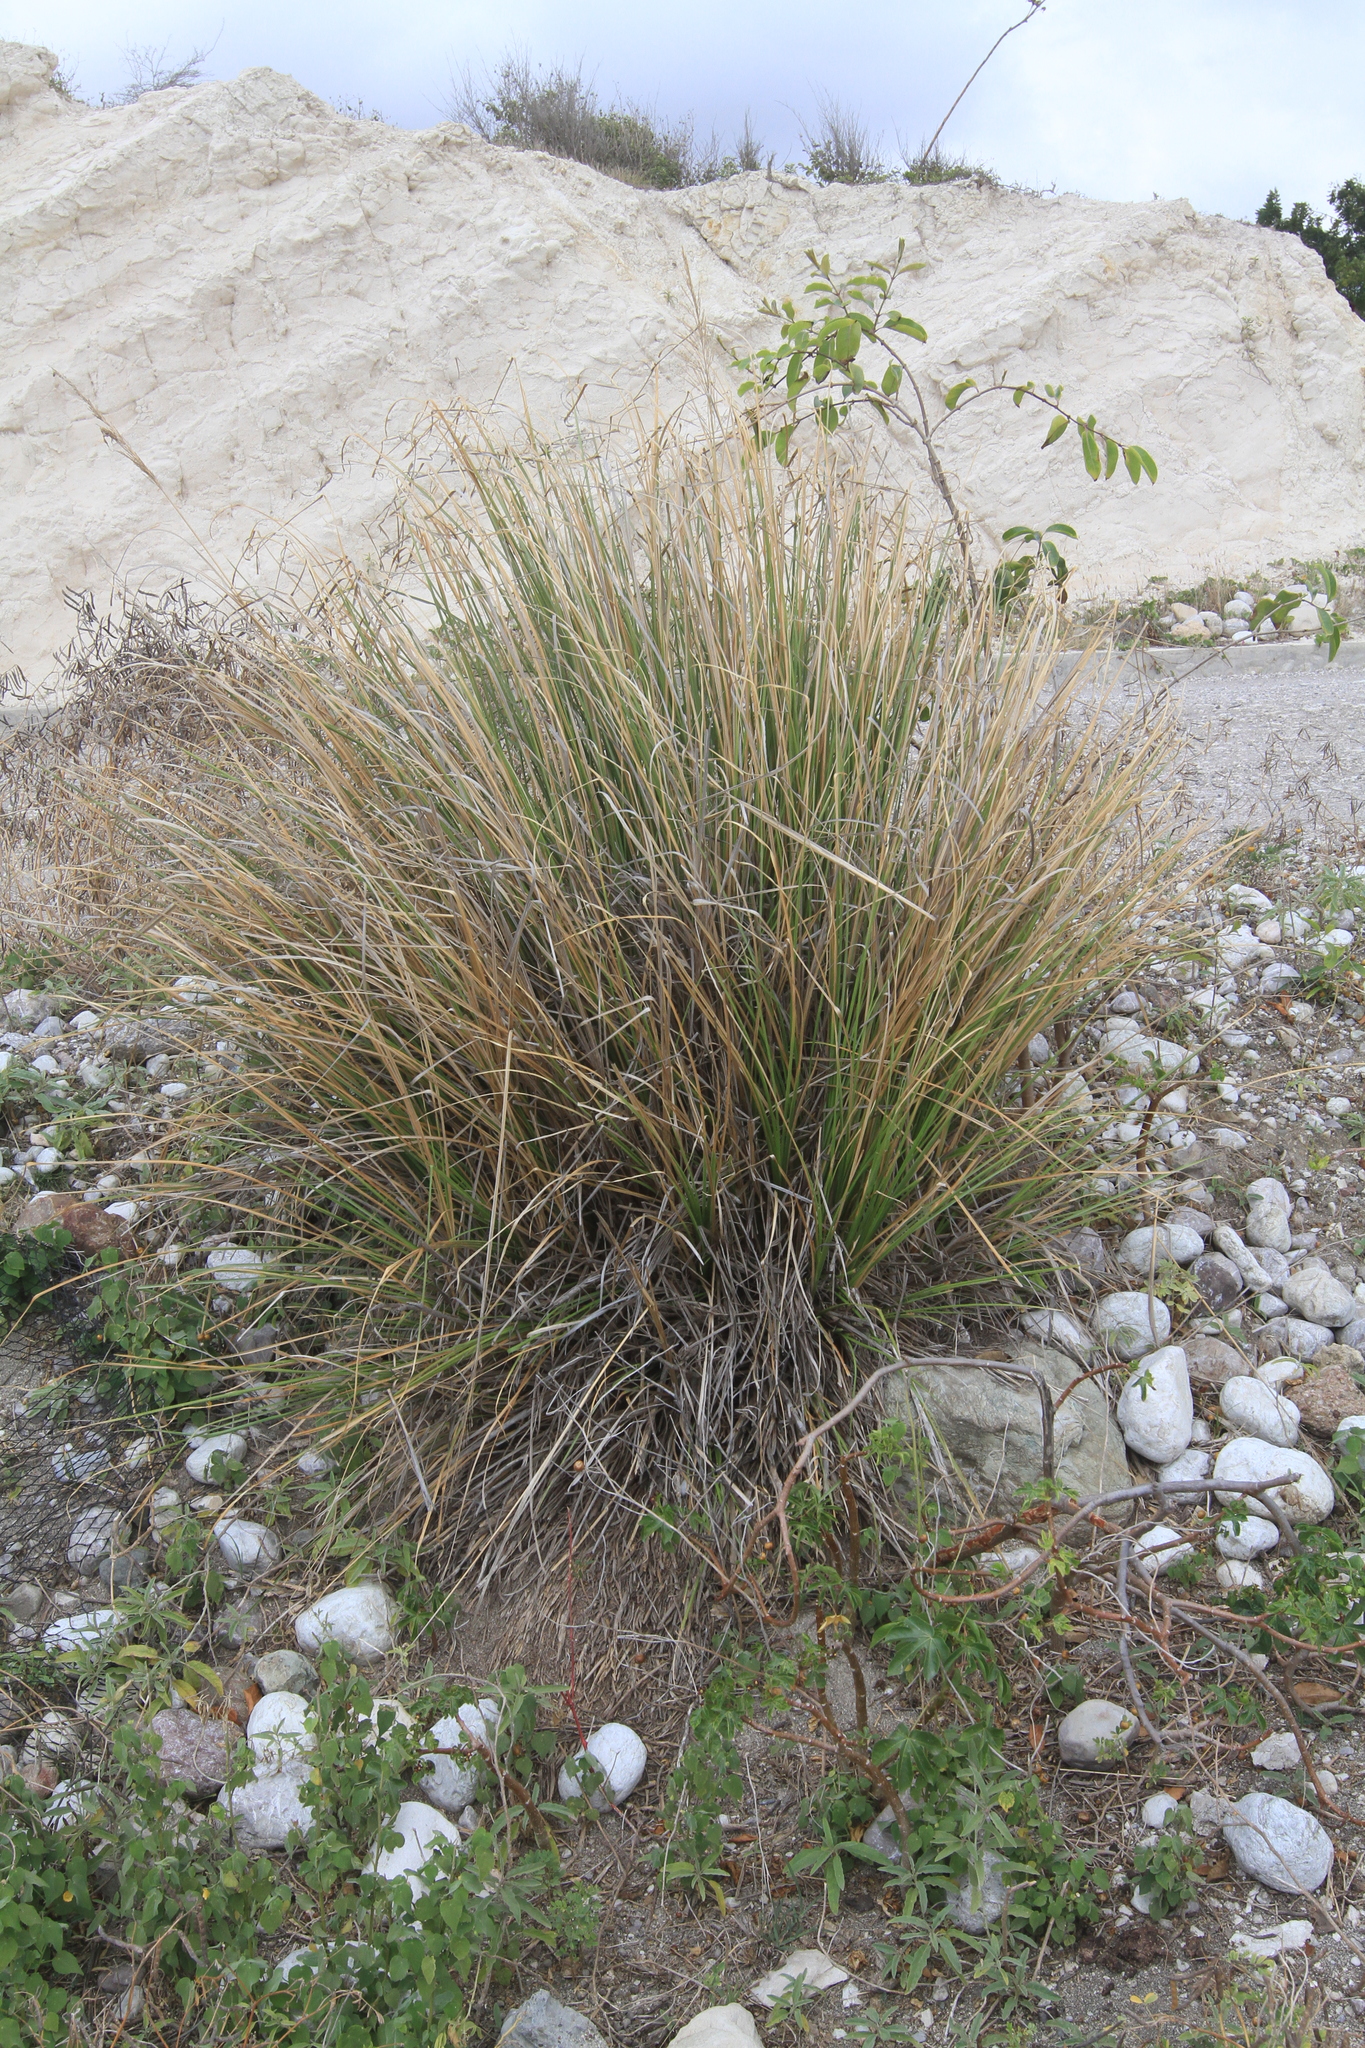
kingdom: Plantae
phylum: Tracheophyta
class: Liliopsida
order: Poales
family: Poaceae
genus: Chrysopogon
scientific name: Chrysopogon zizanioides
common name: False beardgrass
